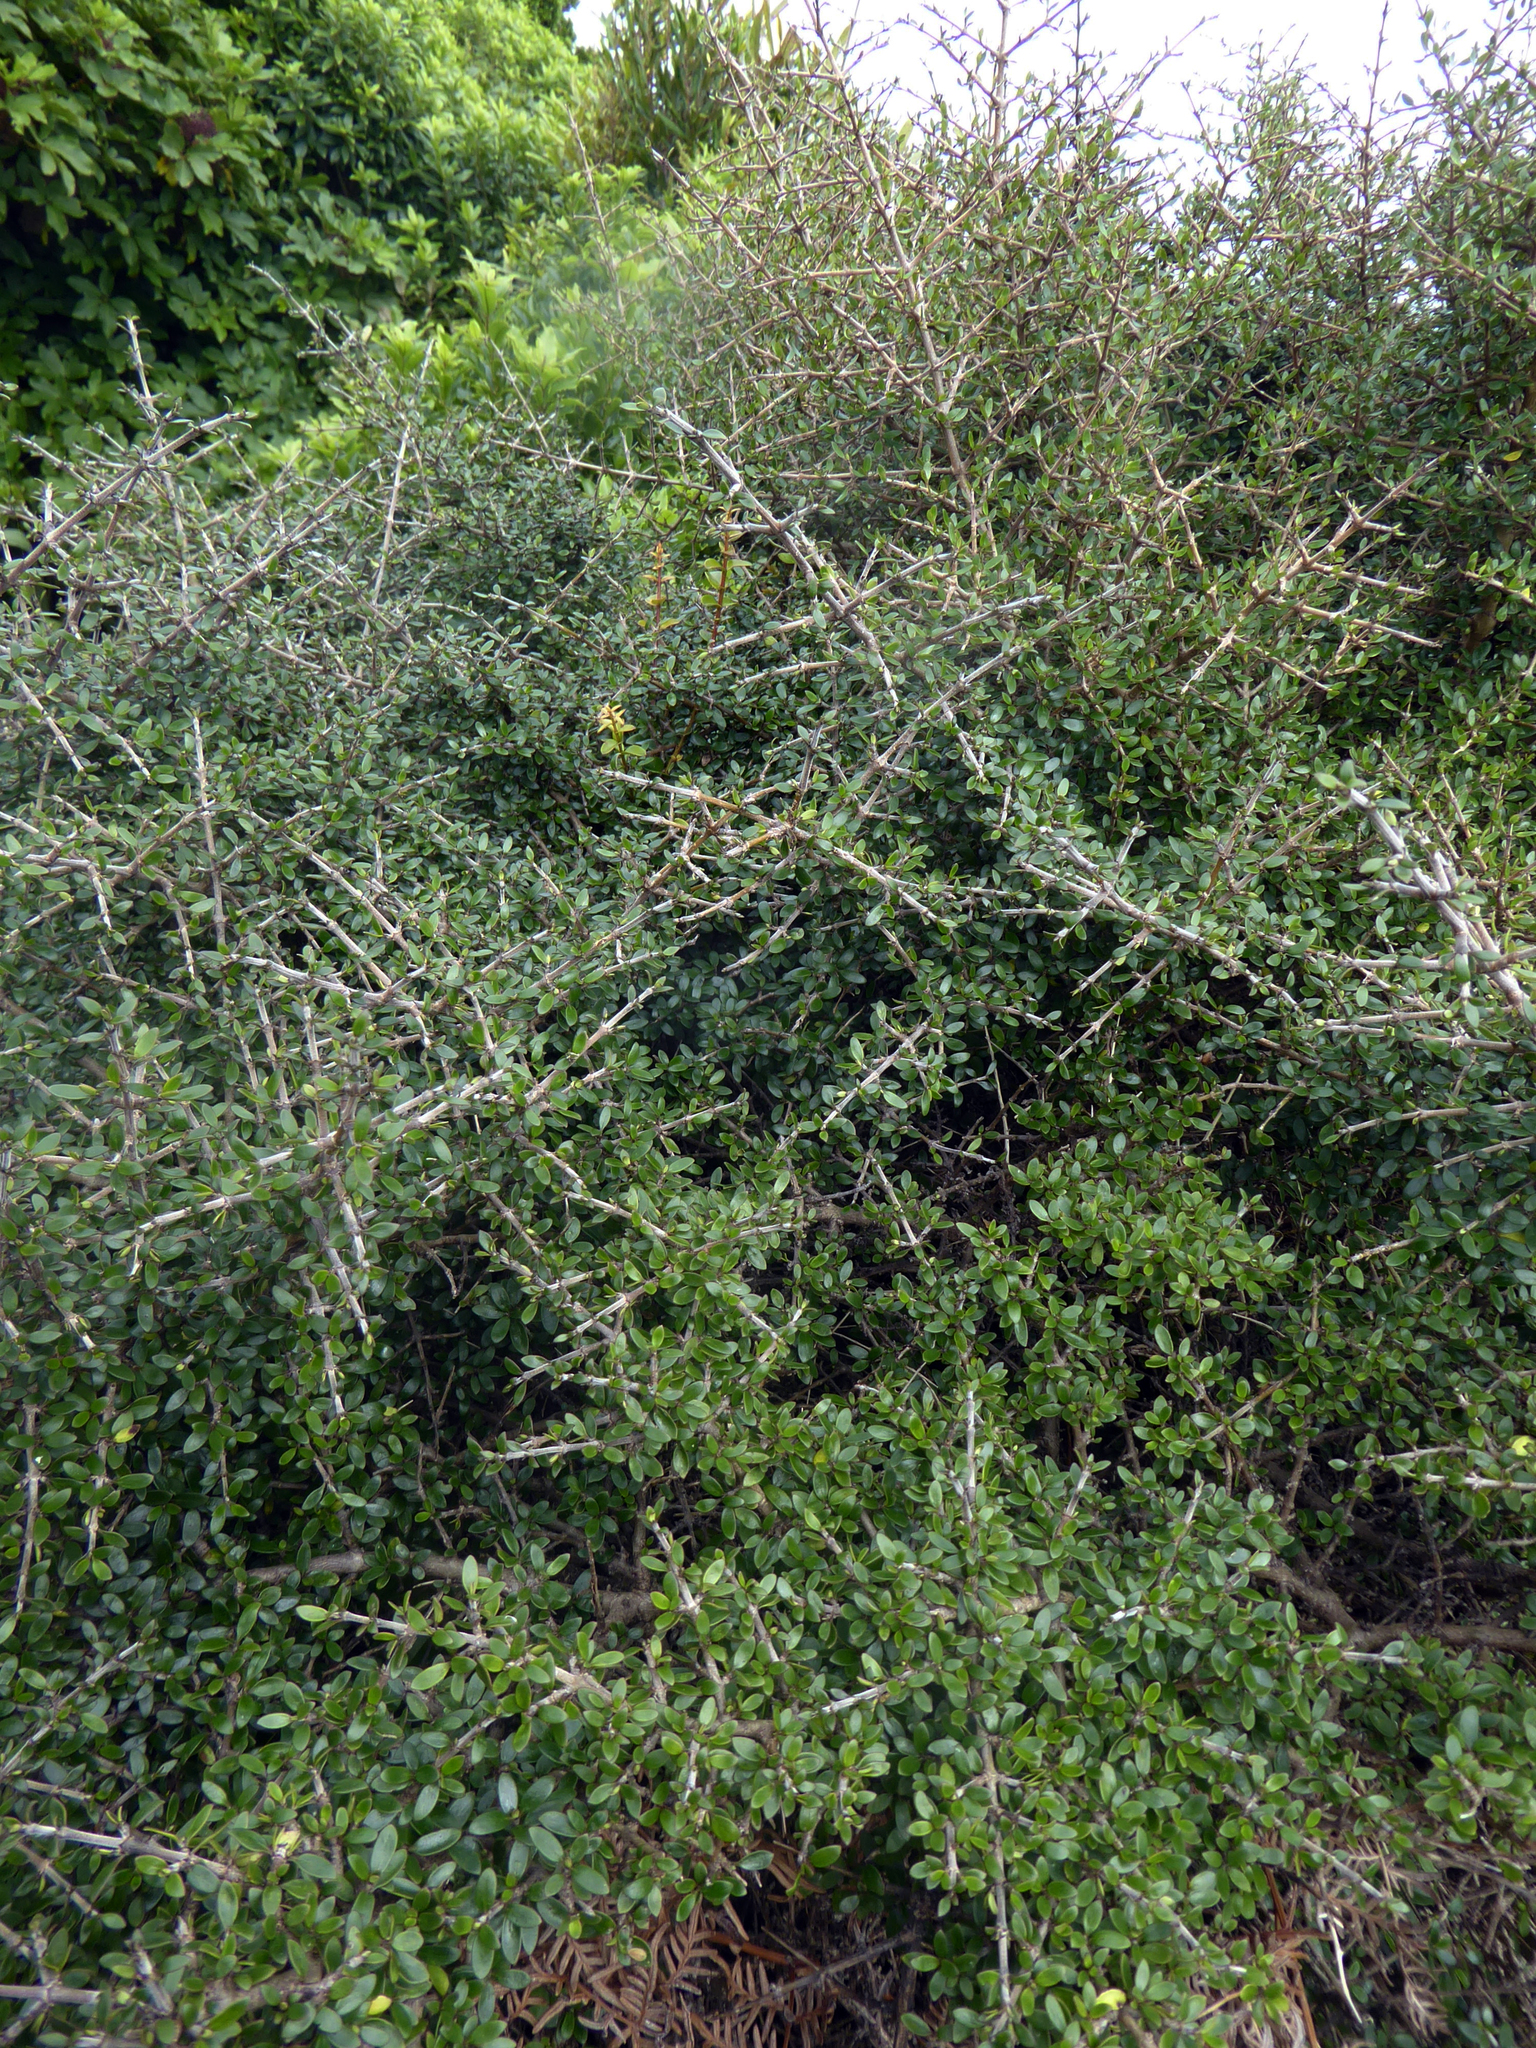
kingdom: Plantae
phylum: Tracheophyta
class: Magnoliopsida
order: Gentianales
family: Rubiaceae
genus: Coprosma
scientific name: Coprosma propinqua
